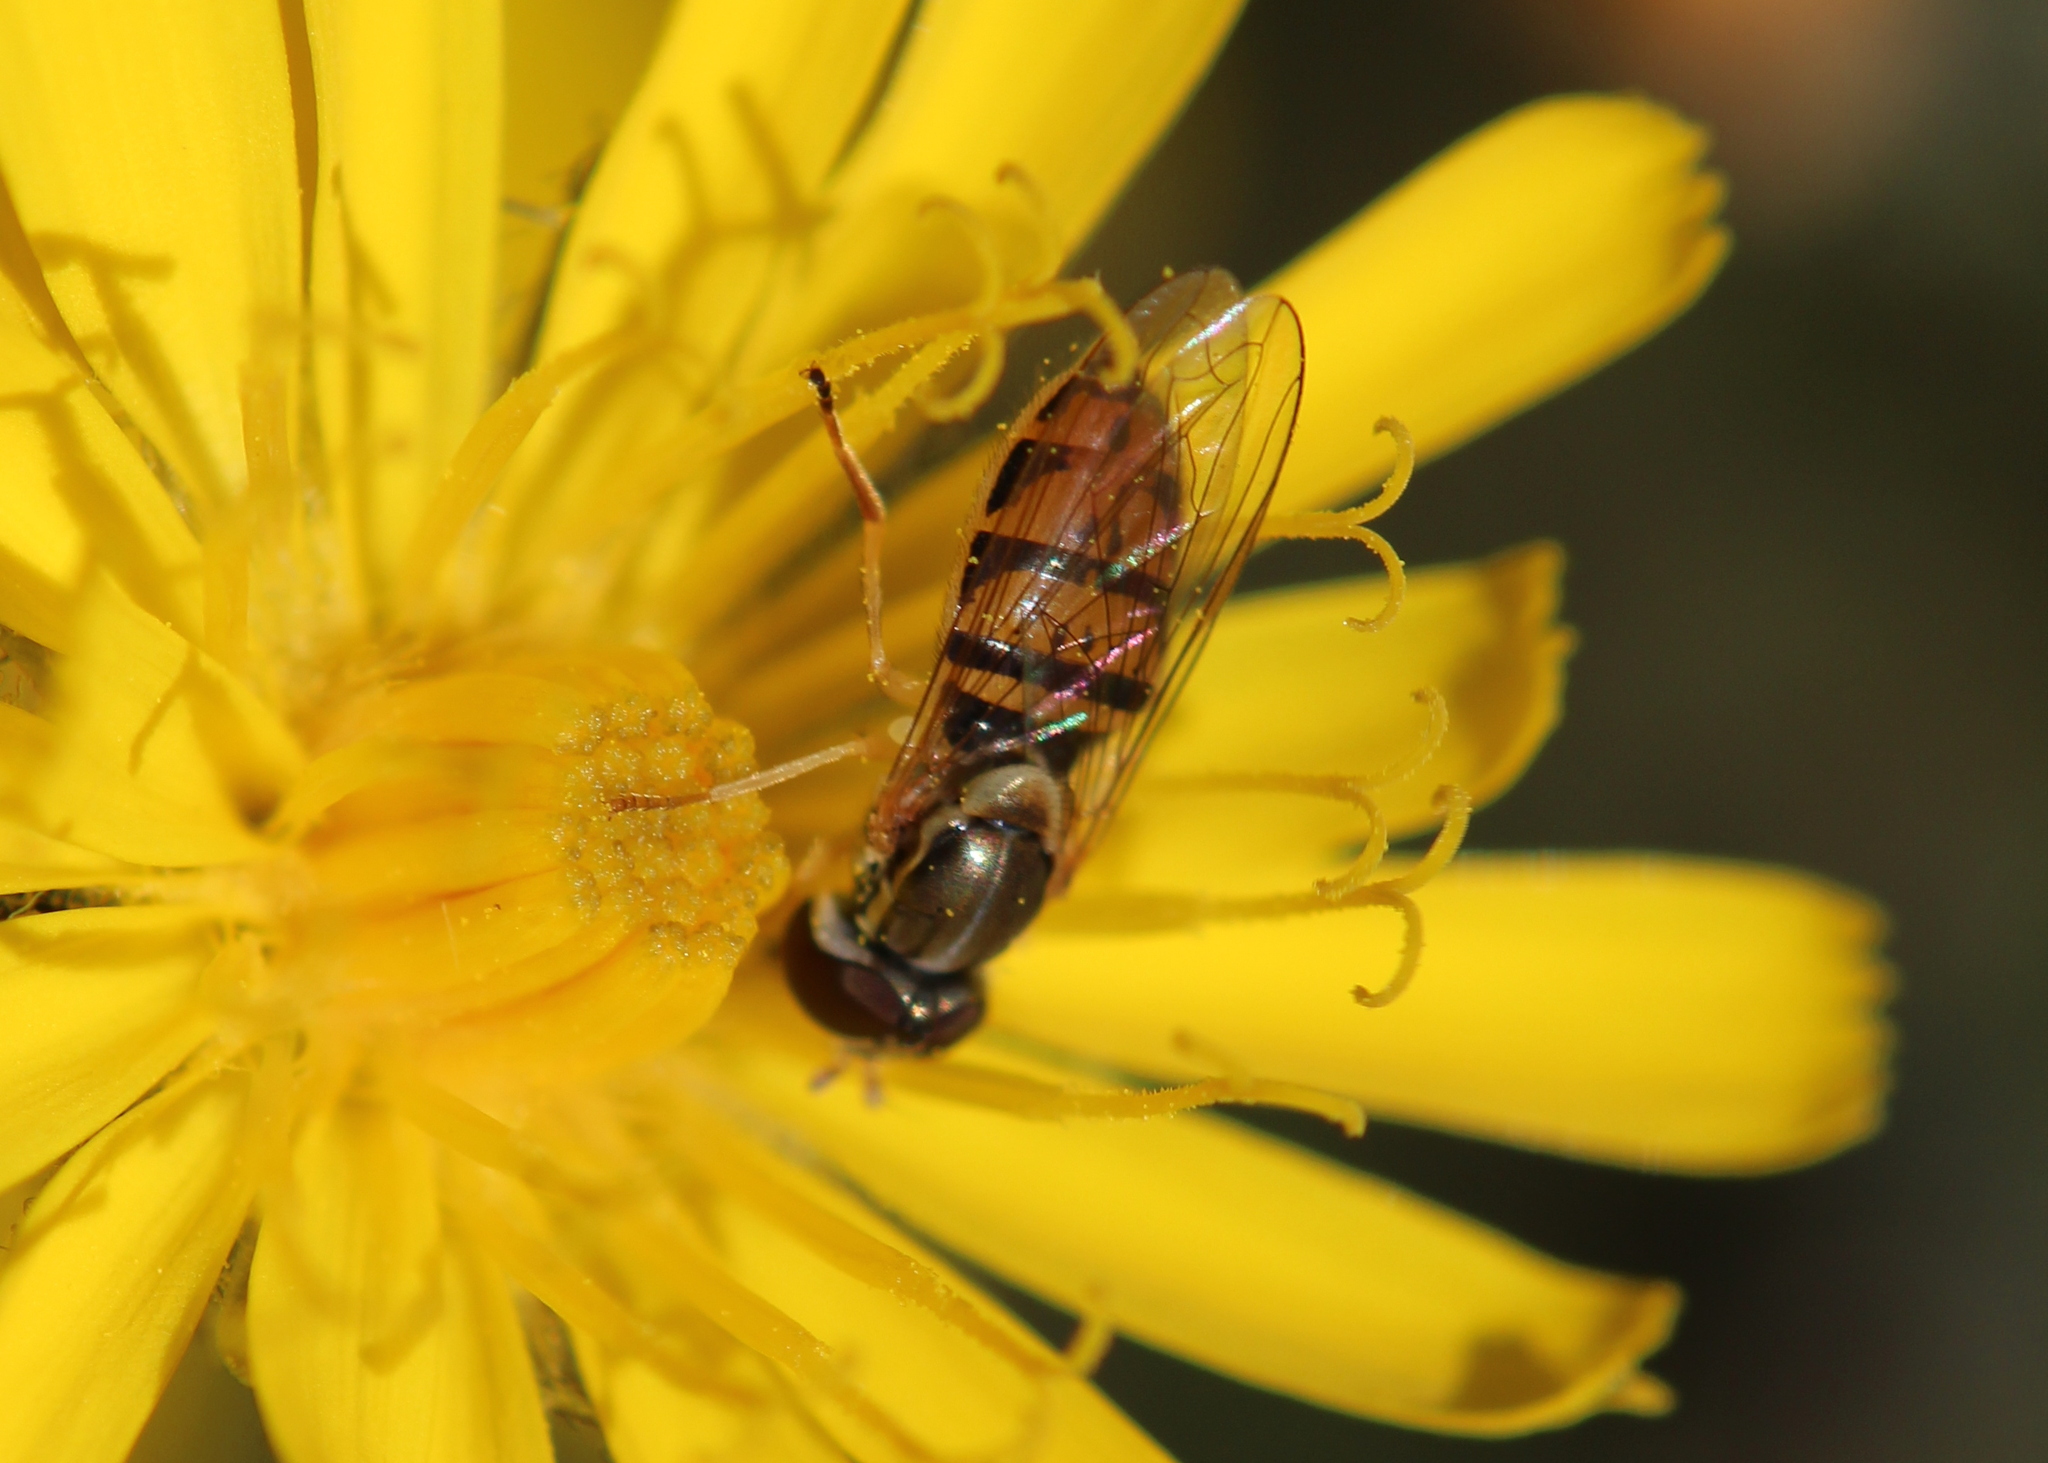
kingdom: Animalia
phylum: Arthropoda
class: Insecta
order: Diptera
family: Syrphidae
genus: Toxomerus
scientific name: Toxomerus marginatus
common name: Syrphid fly
